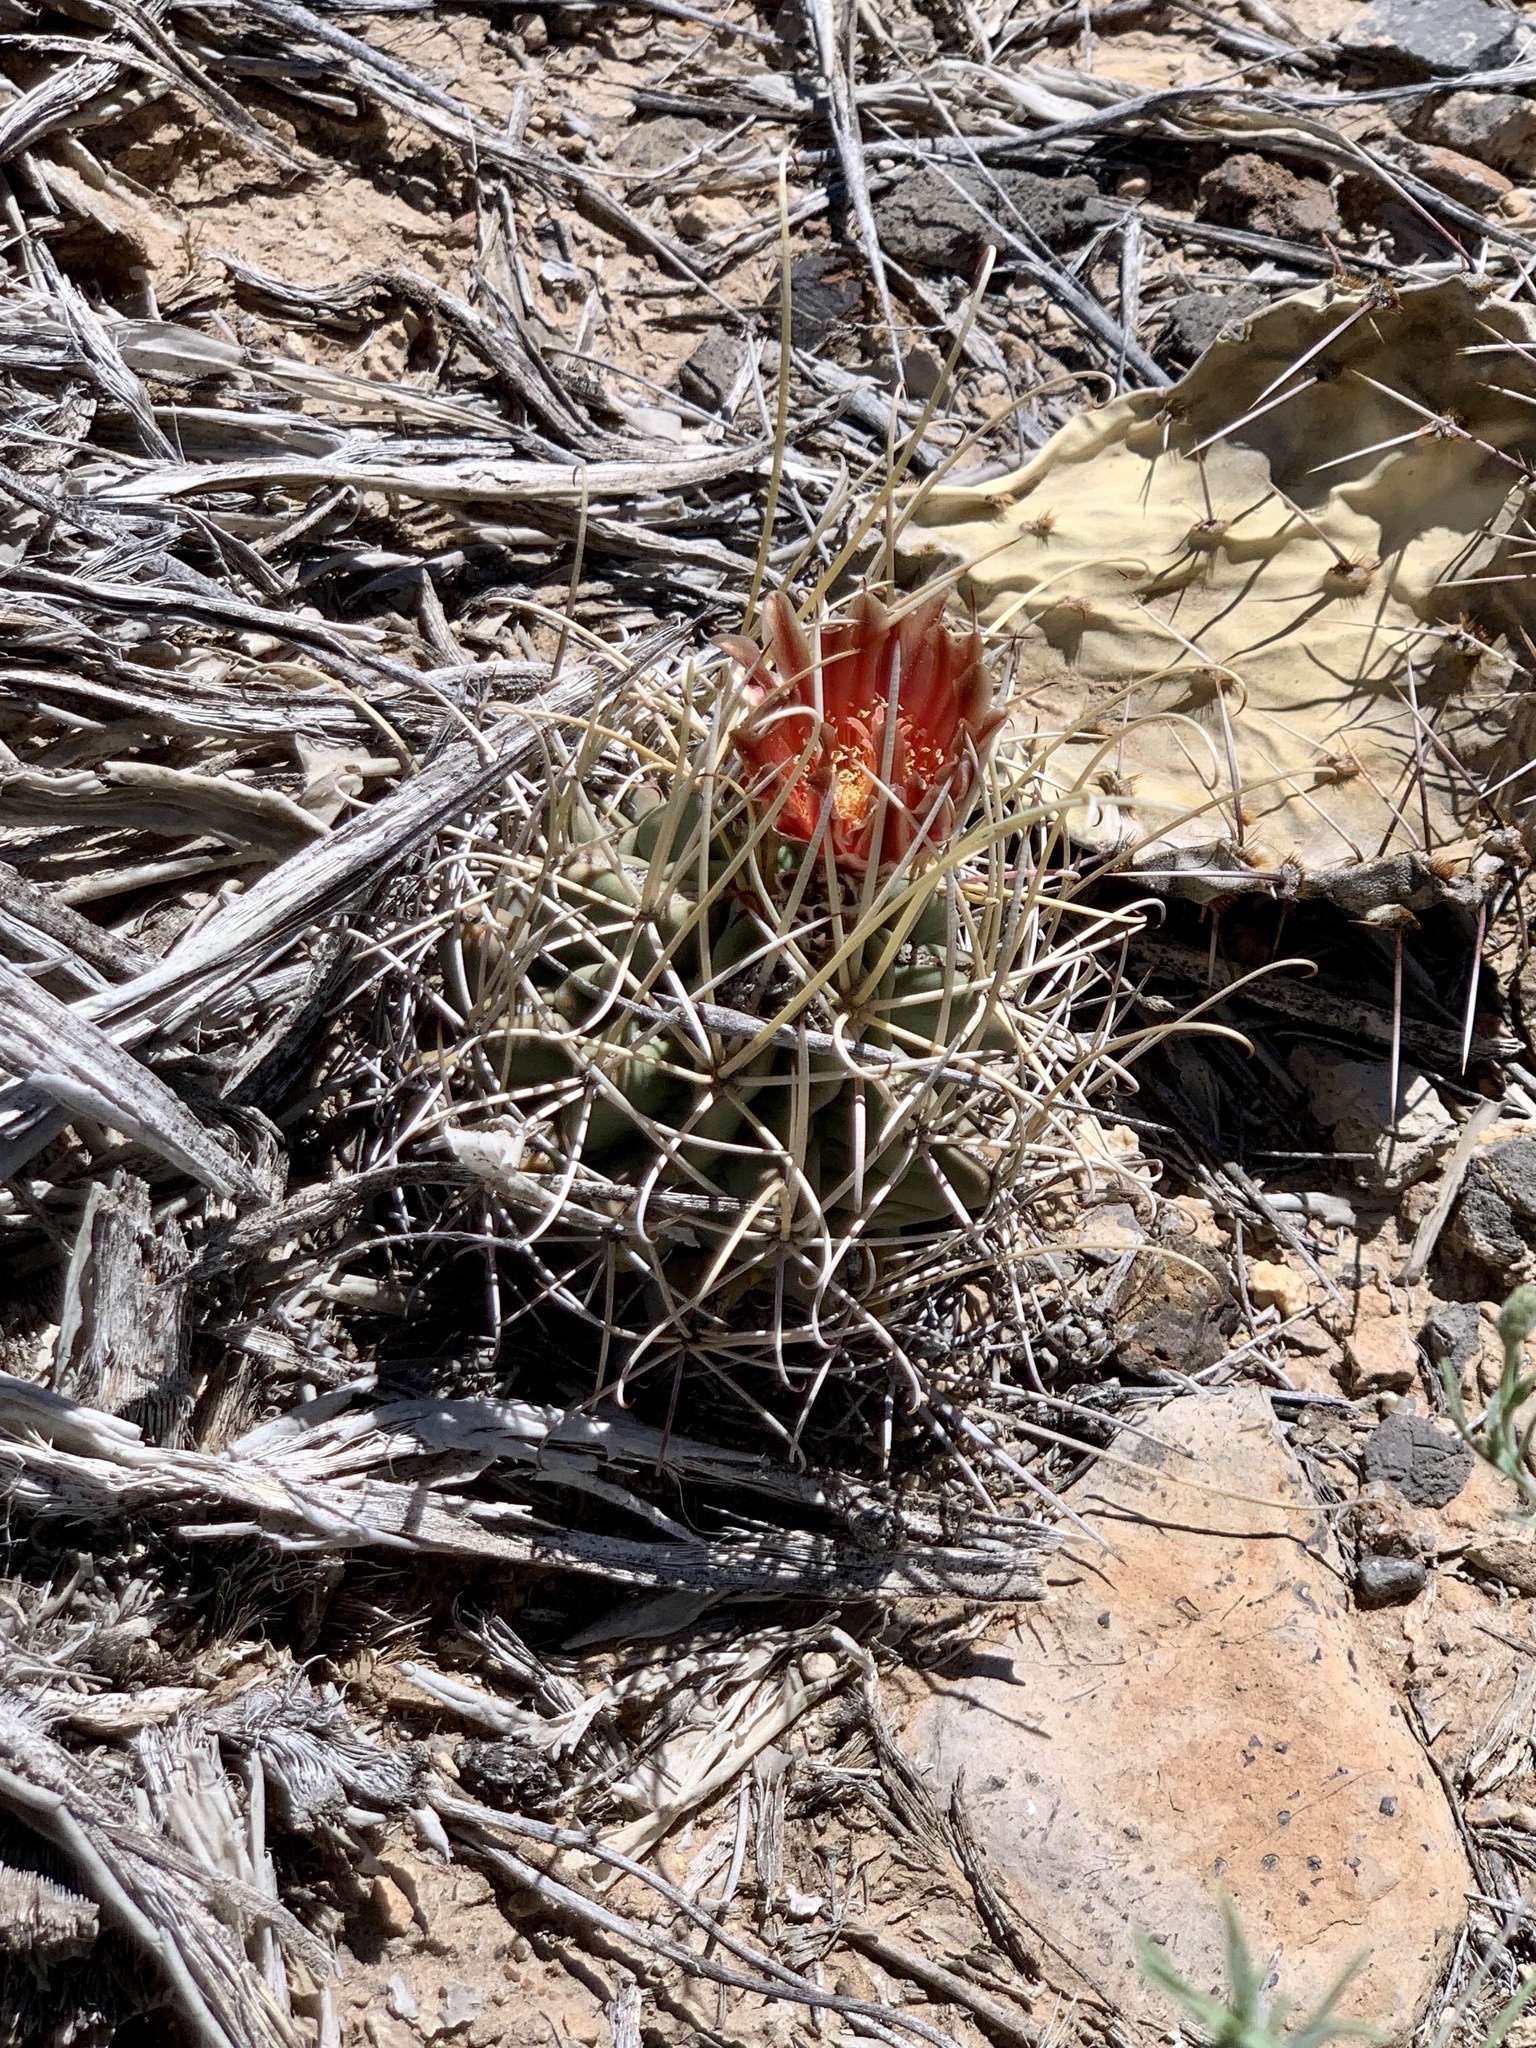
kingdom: Plantae
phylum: Tracheophyta
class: Magnoliopsida
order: Caryophyllales
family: Cactaceae
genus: Ferocactus
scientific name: Ferocactus uncinatus
